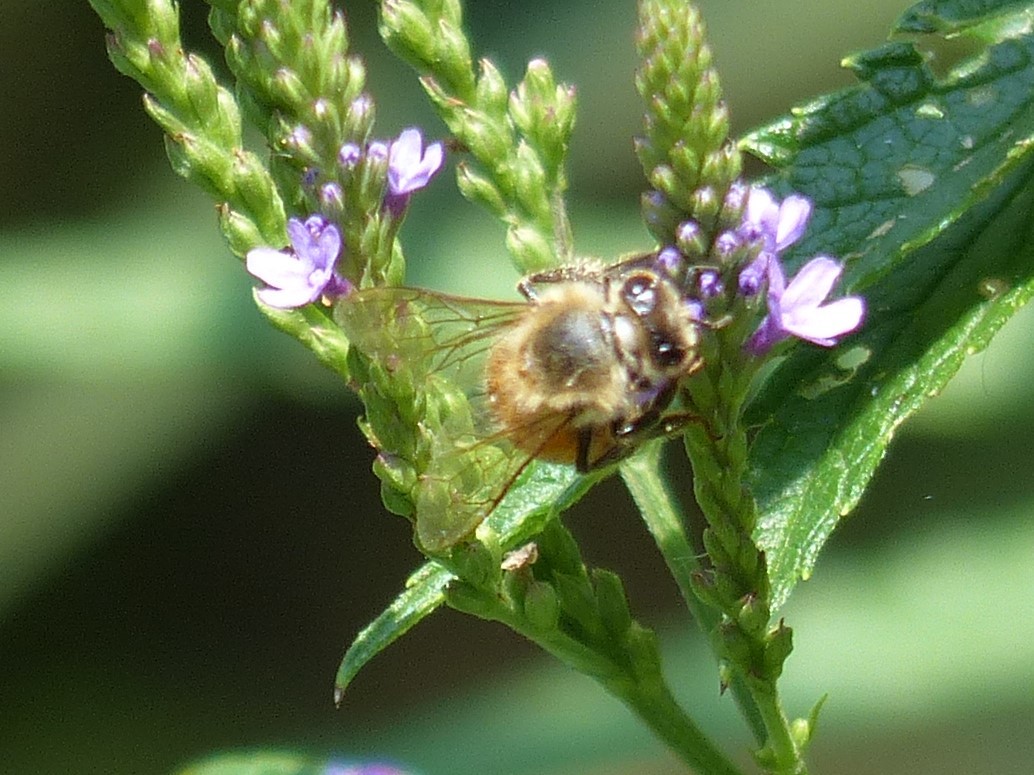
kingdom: Animalia
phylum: Arthropoda
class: Insecta
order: Hymenoptera
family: Apidae
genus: Apis
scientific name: Apis mellifera
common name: Honey bee
